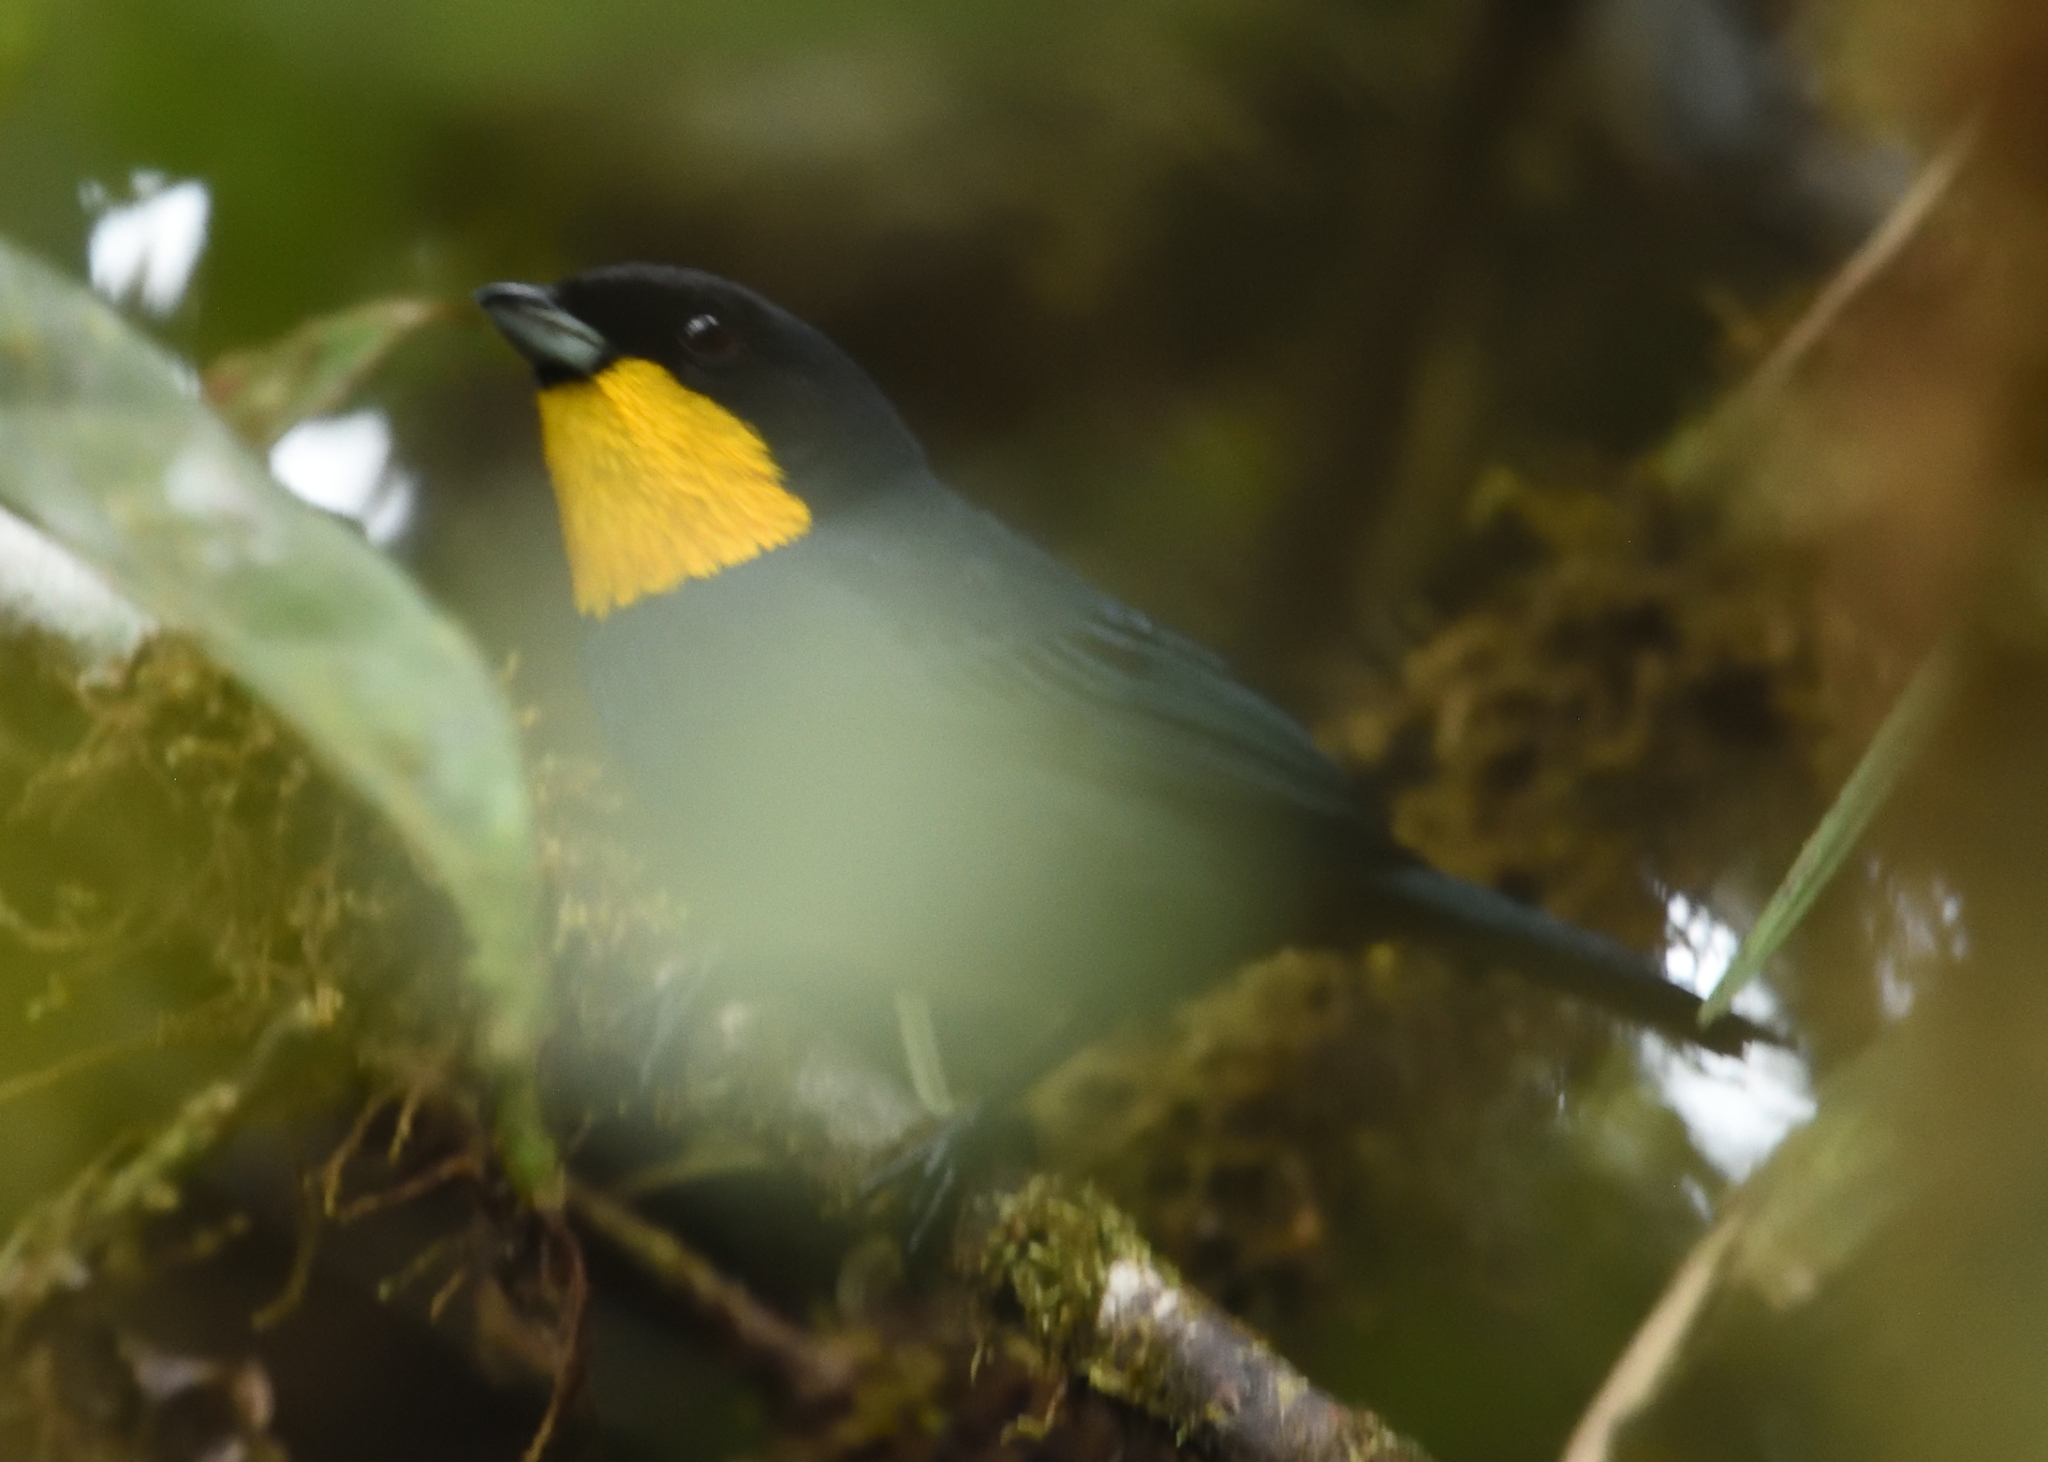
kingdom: Animalia
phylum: Chordata
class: Aves
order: Passeriformes
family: Thraupidae
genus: Iridosornis
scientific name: Iridosornis porphyrocephalus
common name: Purplish-mantled tanager
